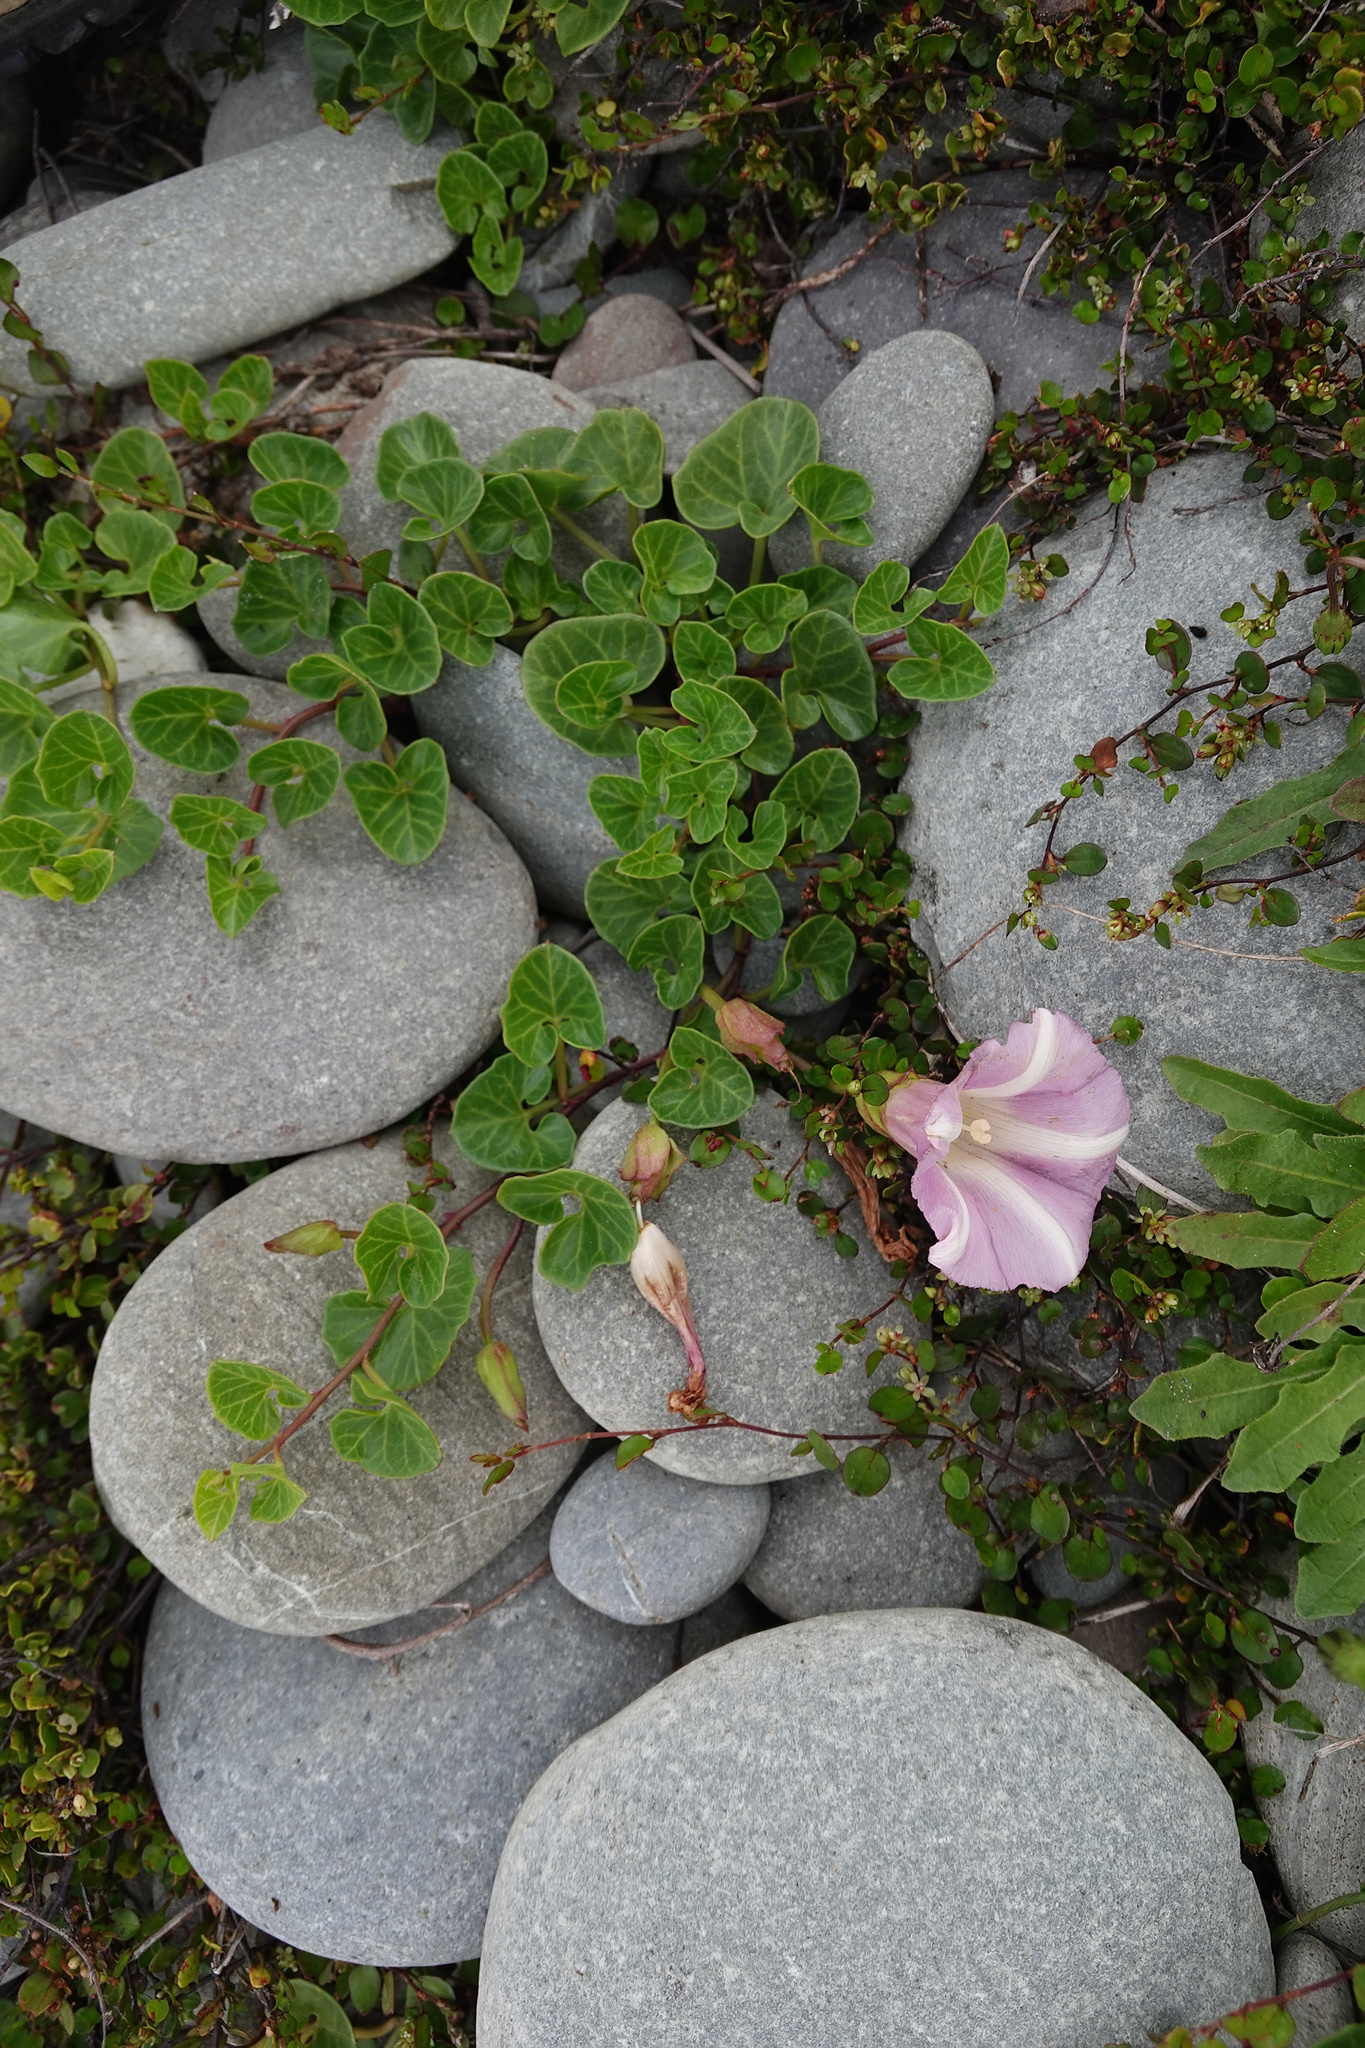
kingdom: Plantae
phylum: Tracheophyta
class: Magnoliopsida
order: Solanales
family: Convolvulaceae
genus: Calystegia
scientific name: Calystegia soldanella
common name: Sea bindweed
